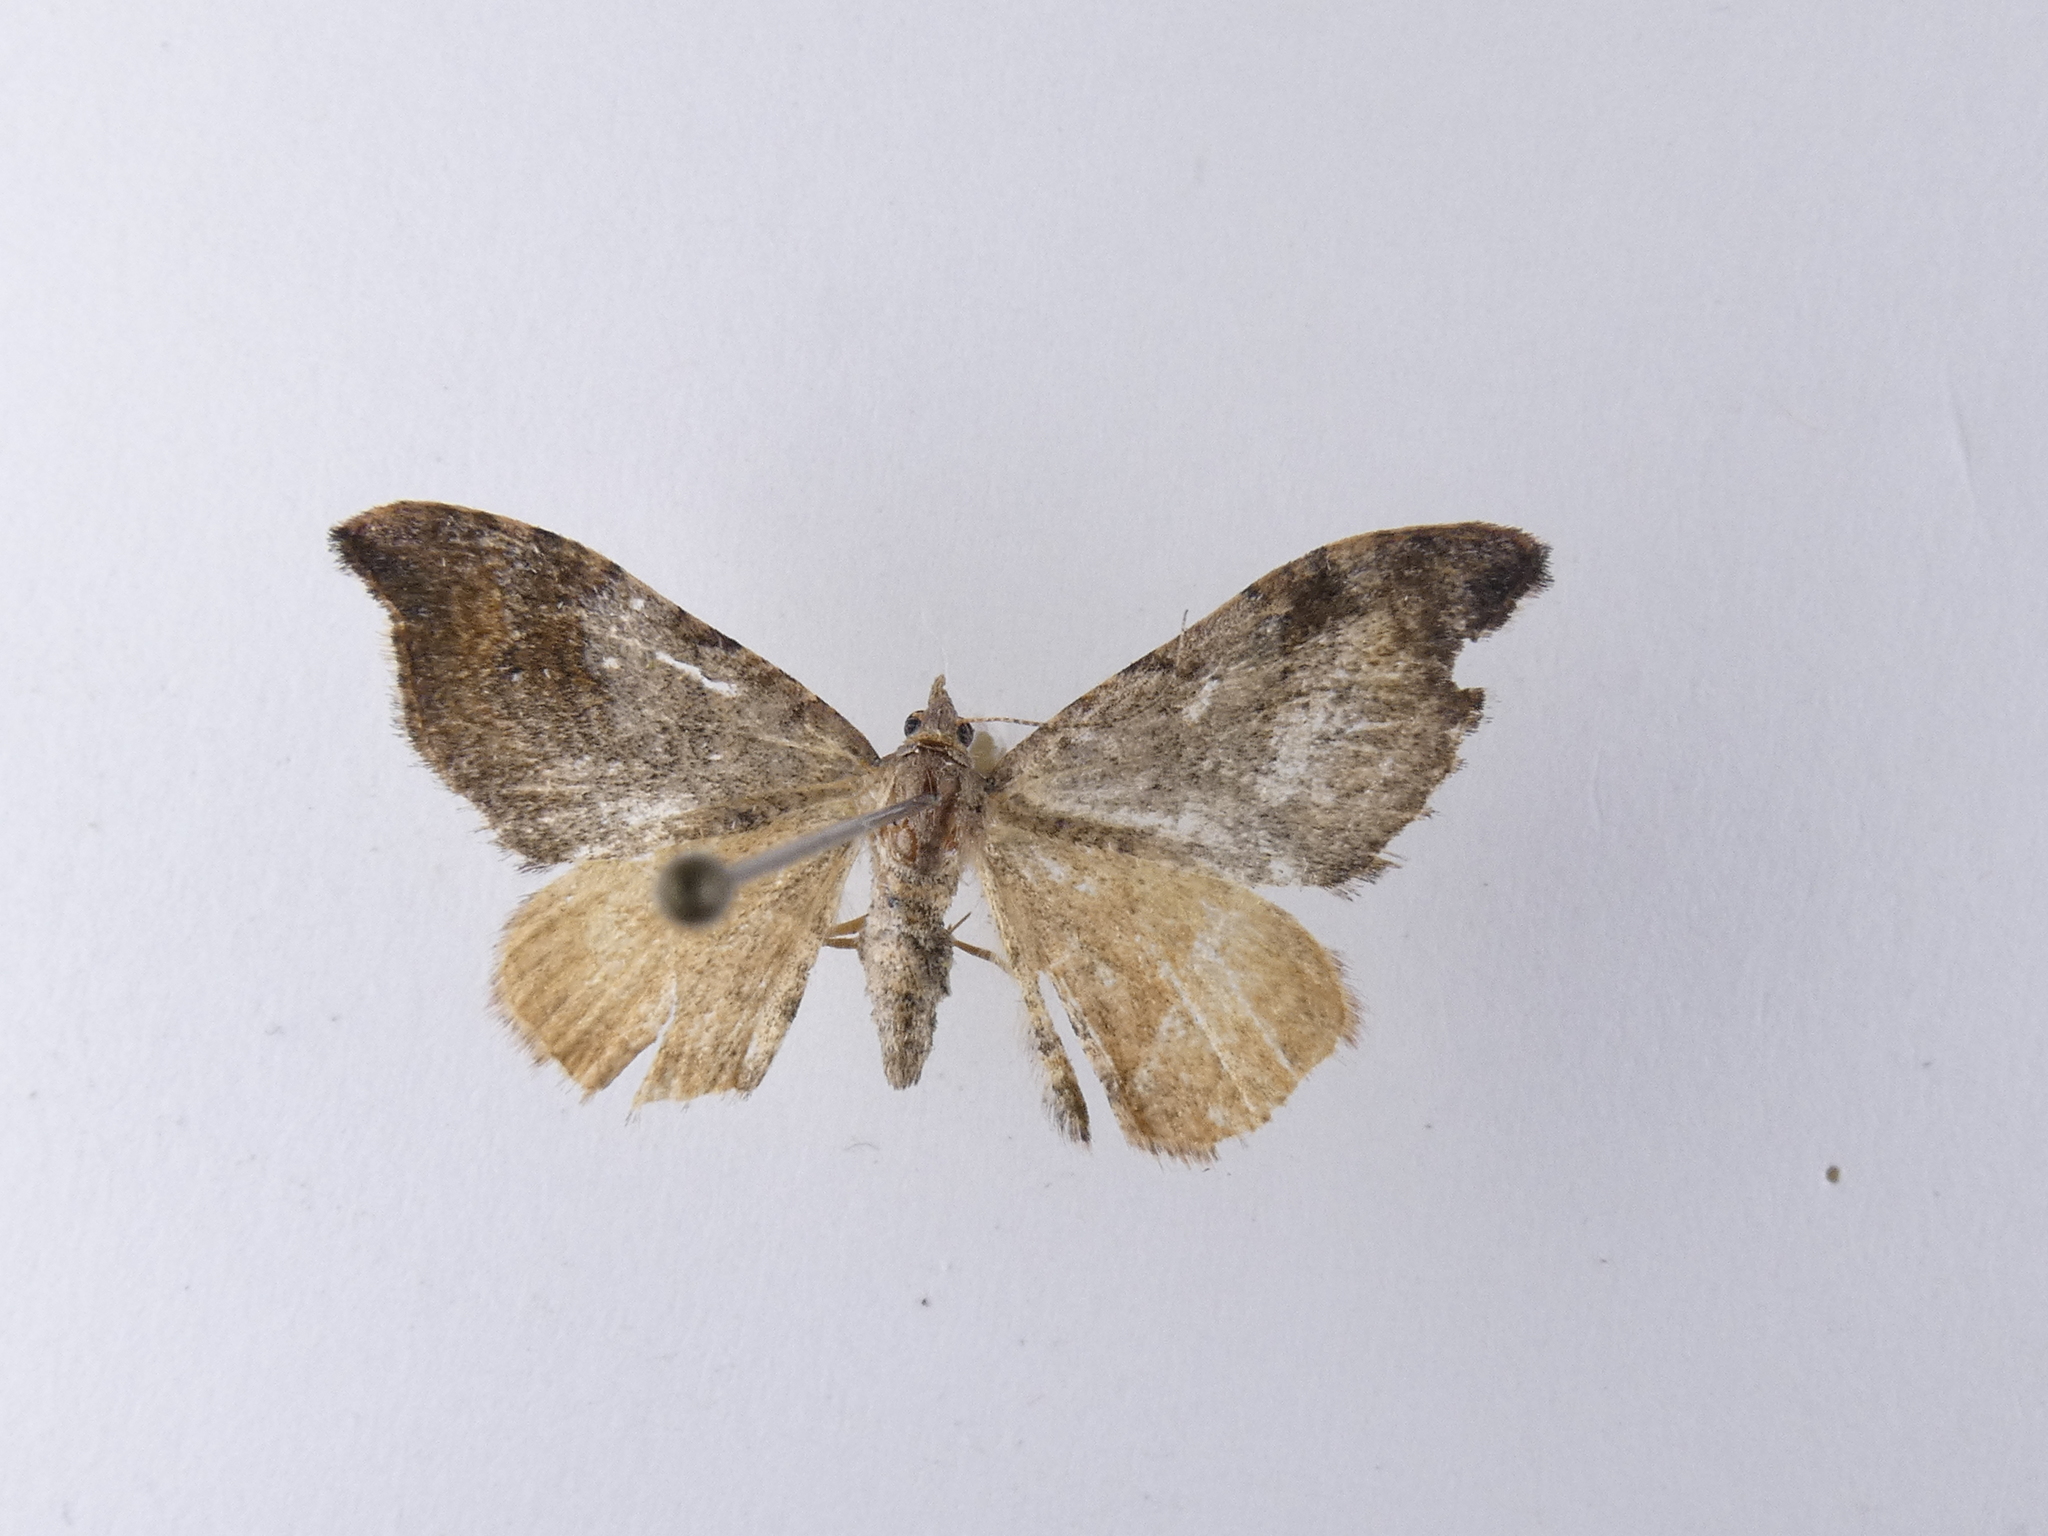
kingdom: Animalia
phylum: Arthropoda
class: Insecta
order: Lepidoptera
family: Geometridae
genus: Homodotis
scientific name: Homodotis megaspilata
